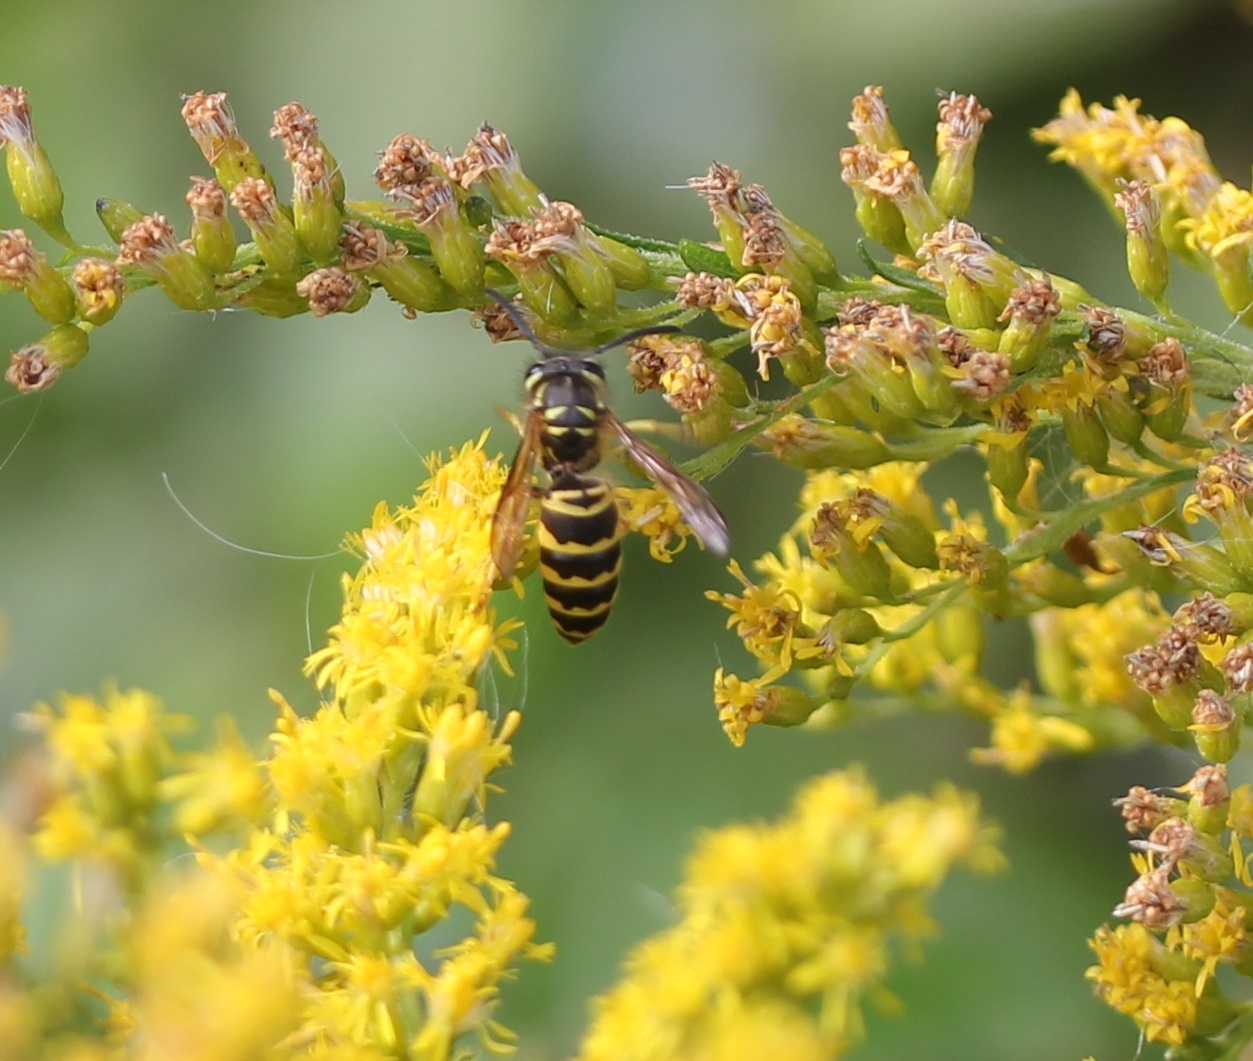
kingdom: Animalia
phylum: Arthropoda
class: Insecta
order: Hymenoptera
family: Vespidae
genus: Vespula
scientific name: Vespula maculifrons
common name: Eastern yellowjacket
